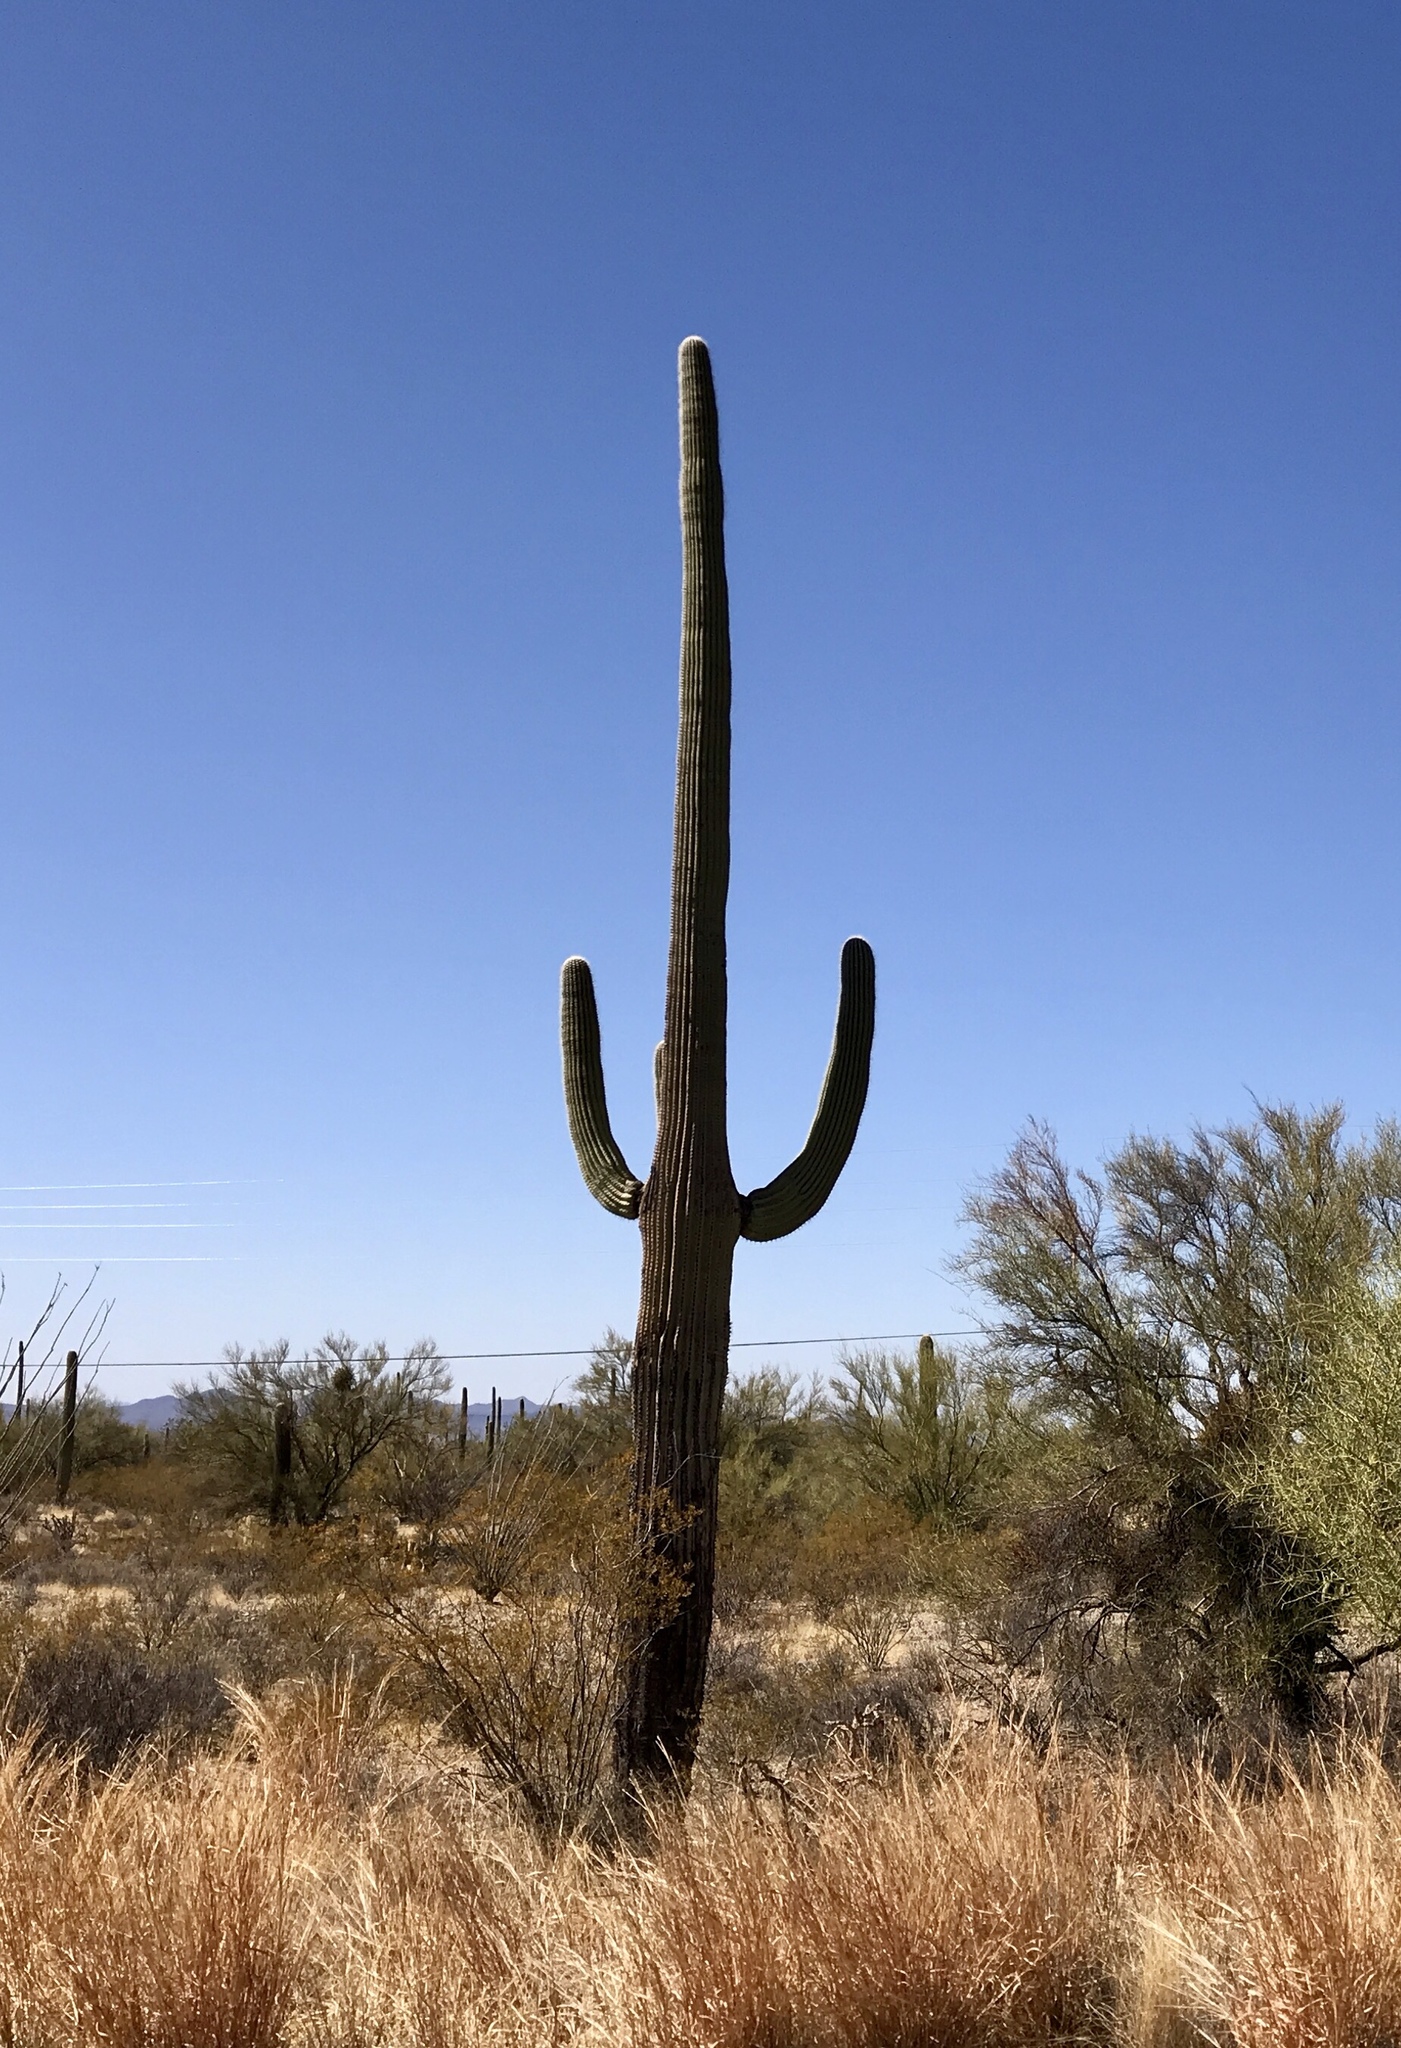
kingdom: Plantae
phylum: Tracheophyta
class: Magnoliopsida
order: Caryophyllales
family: Cactaceae
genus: Carnegiea
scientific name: Carnegiea gigantea
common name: Saguaro
